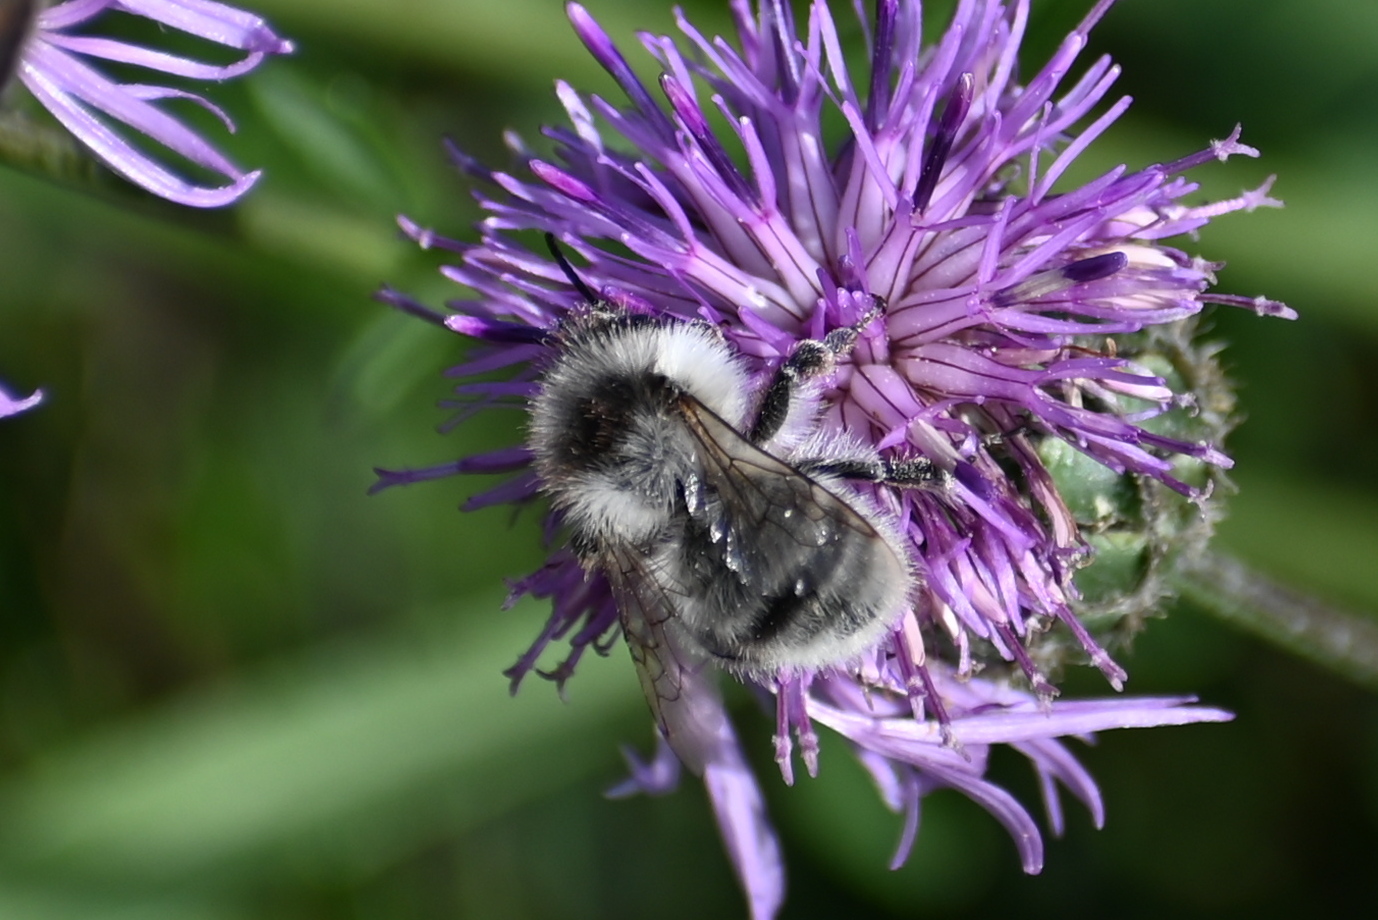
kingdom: Animalia
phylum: Arthropoda
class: Insecta
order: Hymenoptera
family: Apidae
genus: Bombus
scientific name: Bombus sylvarum
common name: Shrill carder bee
